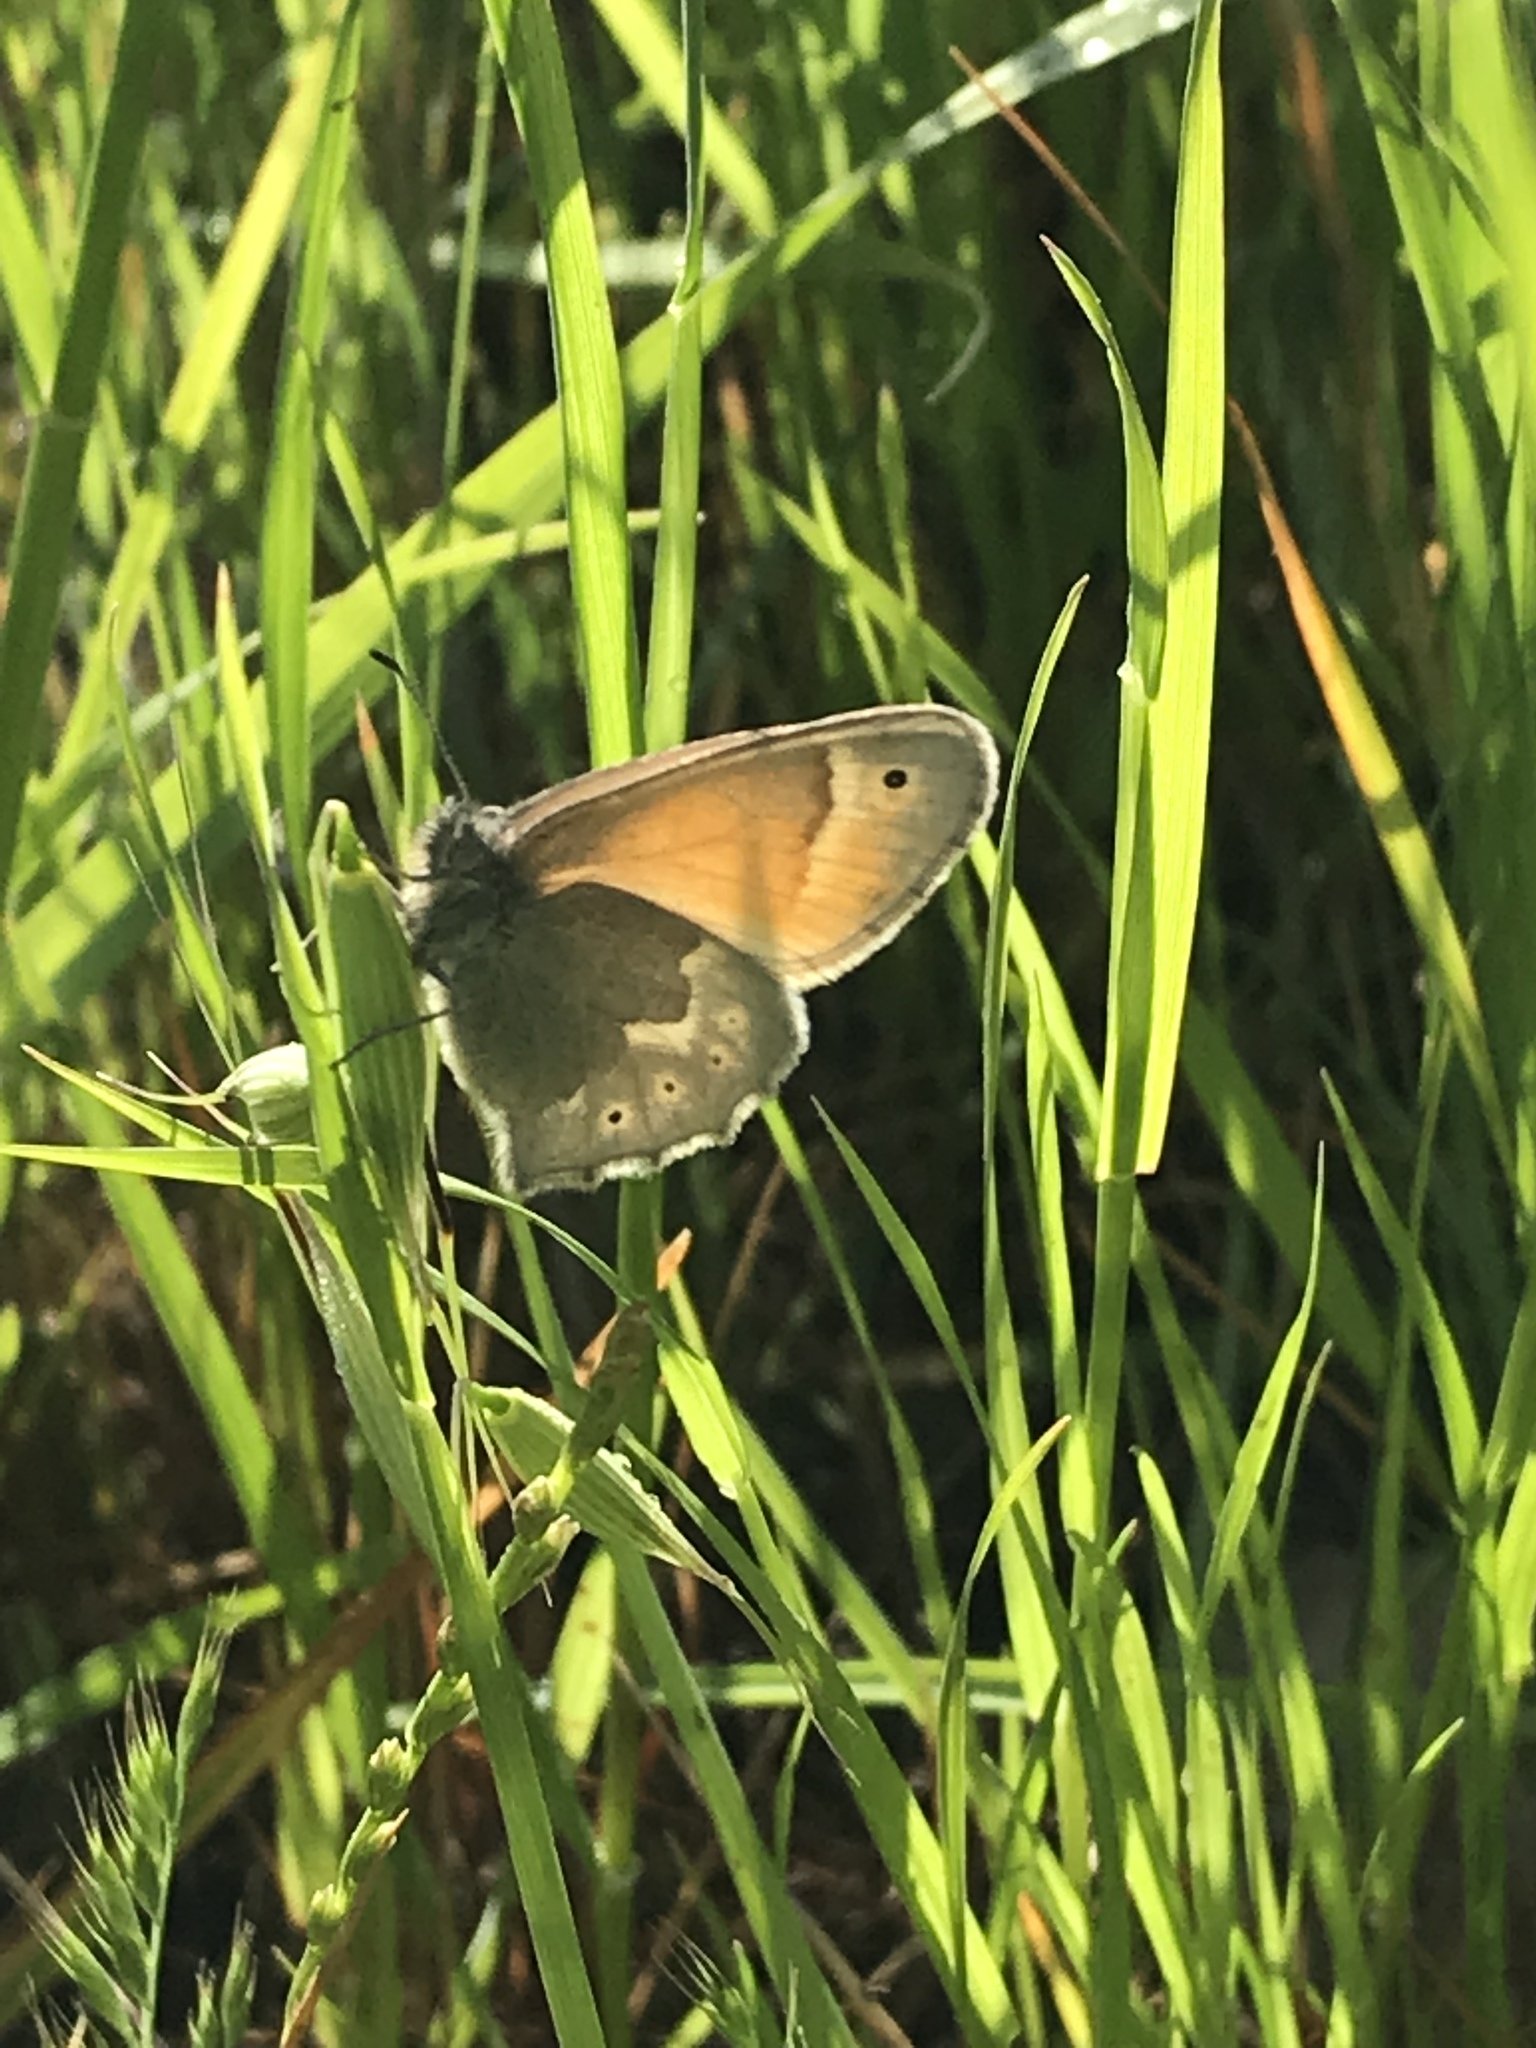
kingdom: Animalia
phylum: Arthropoda
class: Insecta
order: Lepidoptera
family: Nymphalidae
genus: Coenonympha
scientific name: Coenonympha california
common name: Common ringlet
